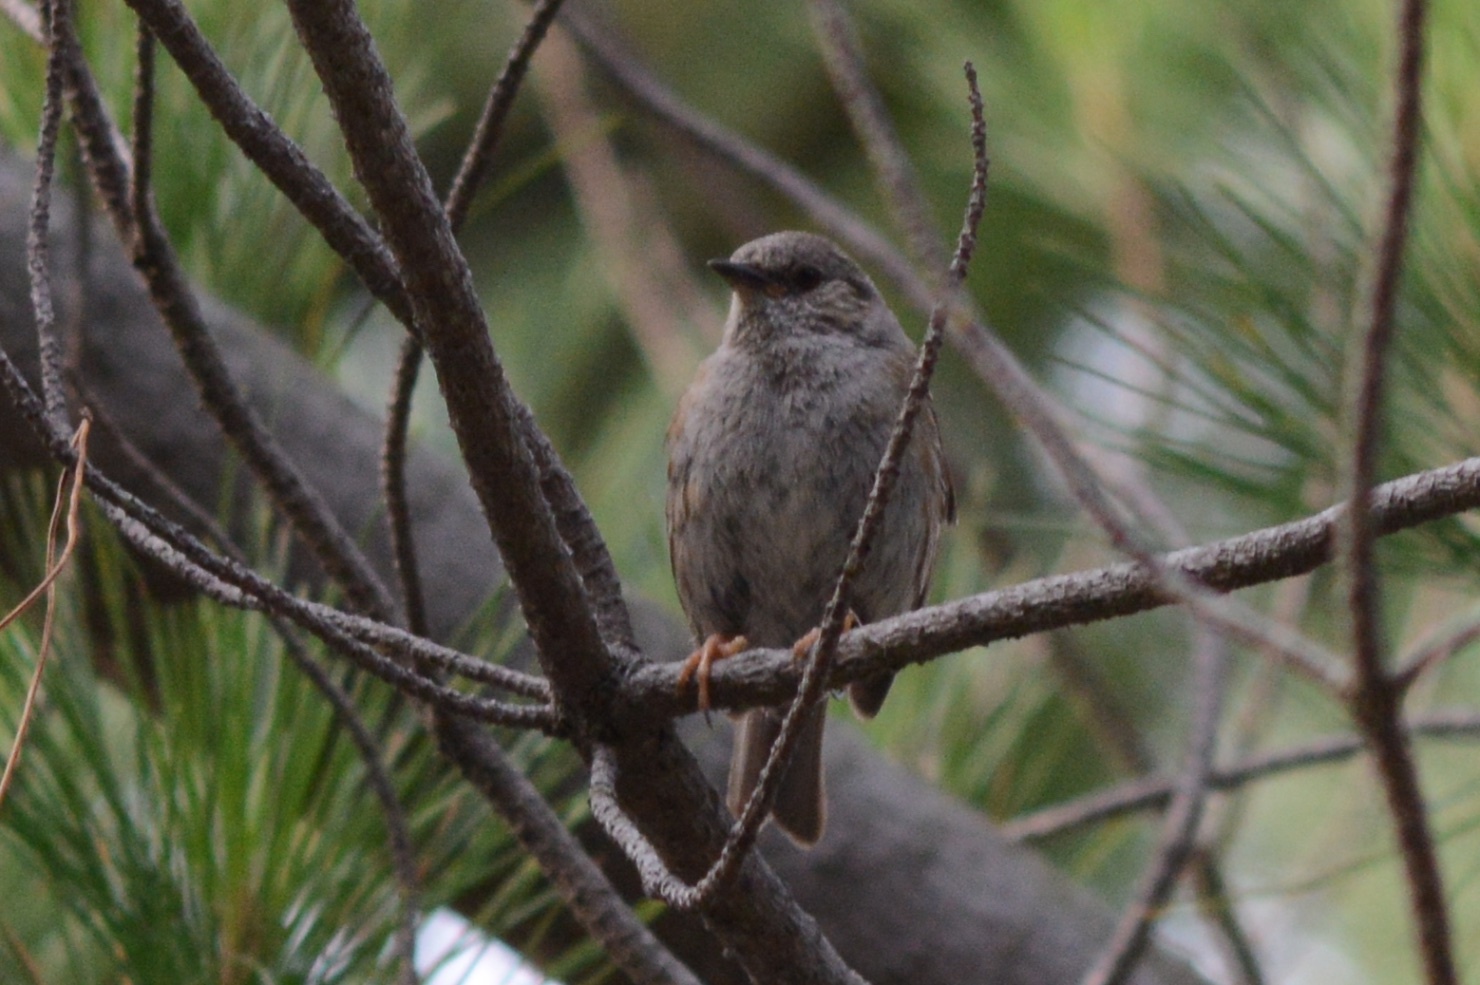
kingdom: Animalia
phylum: Chordata
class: Aves
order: Passeriformes
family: Prunellidae
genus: Prunella
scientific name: Prunella modularis
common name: Dunnock
